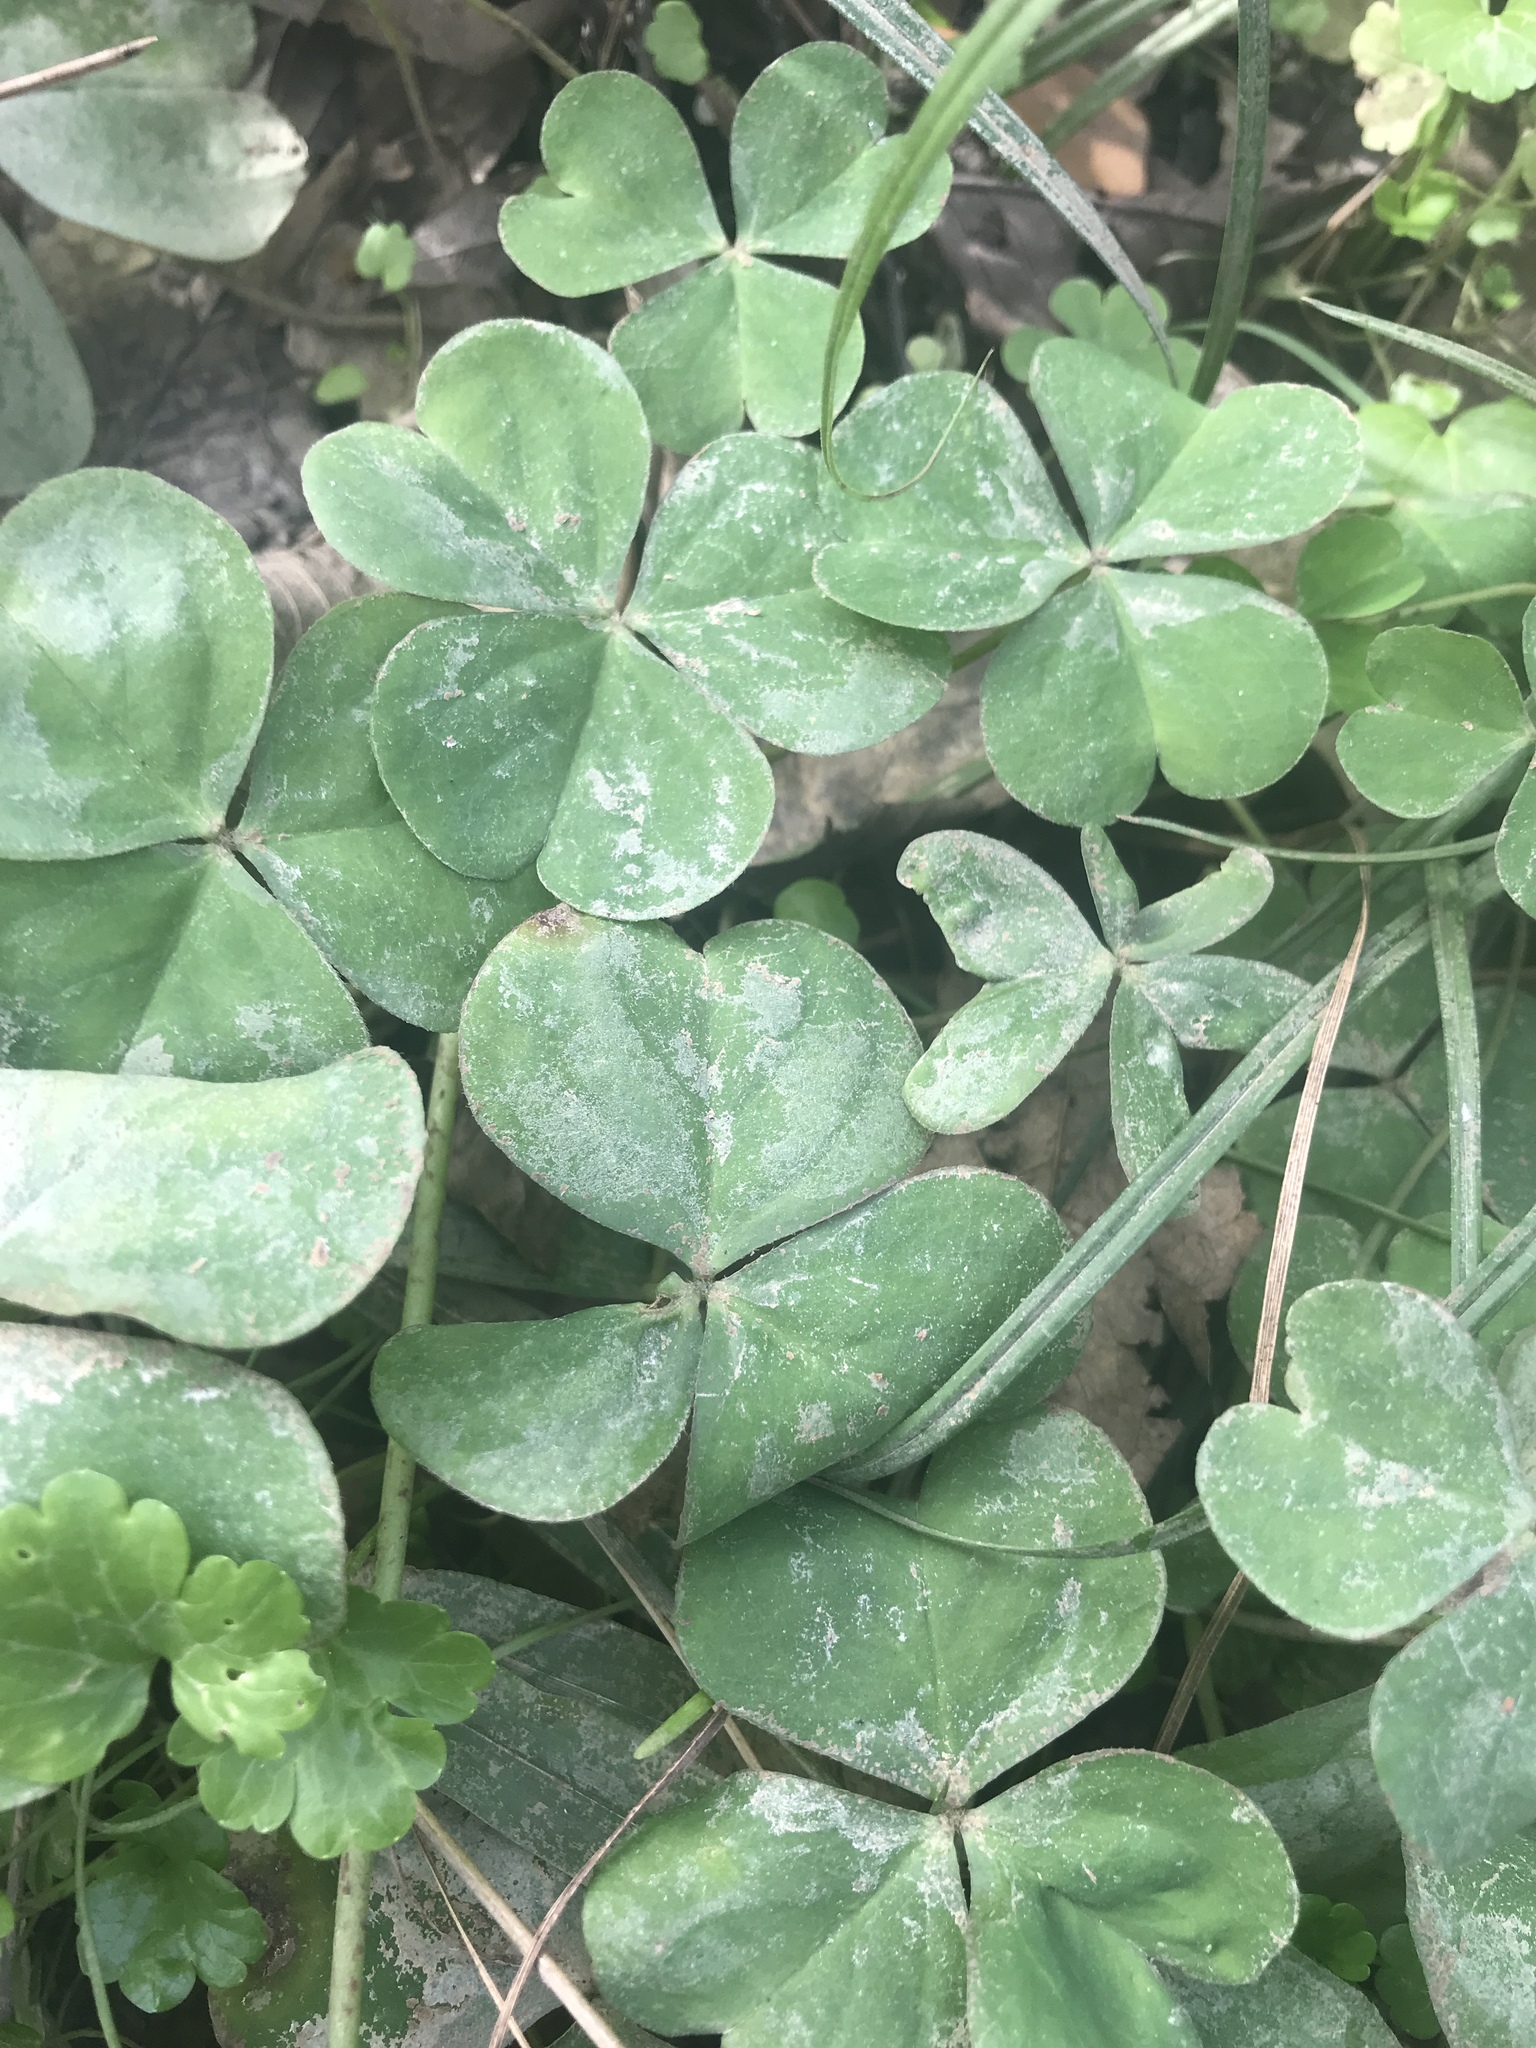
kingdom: Plantae
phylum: Tracheophyta
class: Magnoliopsida
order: Oxalidales
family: Oxalidaceae
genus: Oxalis
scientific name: Oxalis debilis
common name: Large-flowered pink-sorrel
